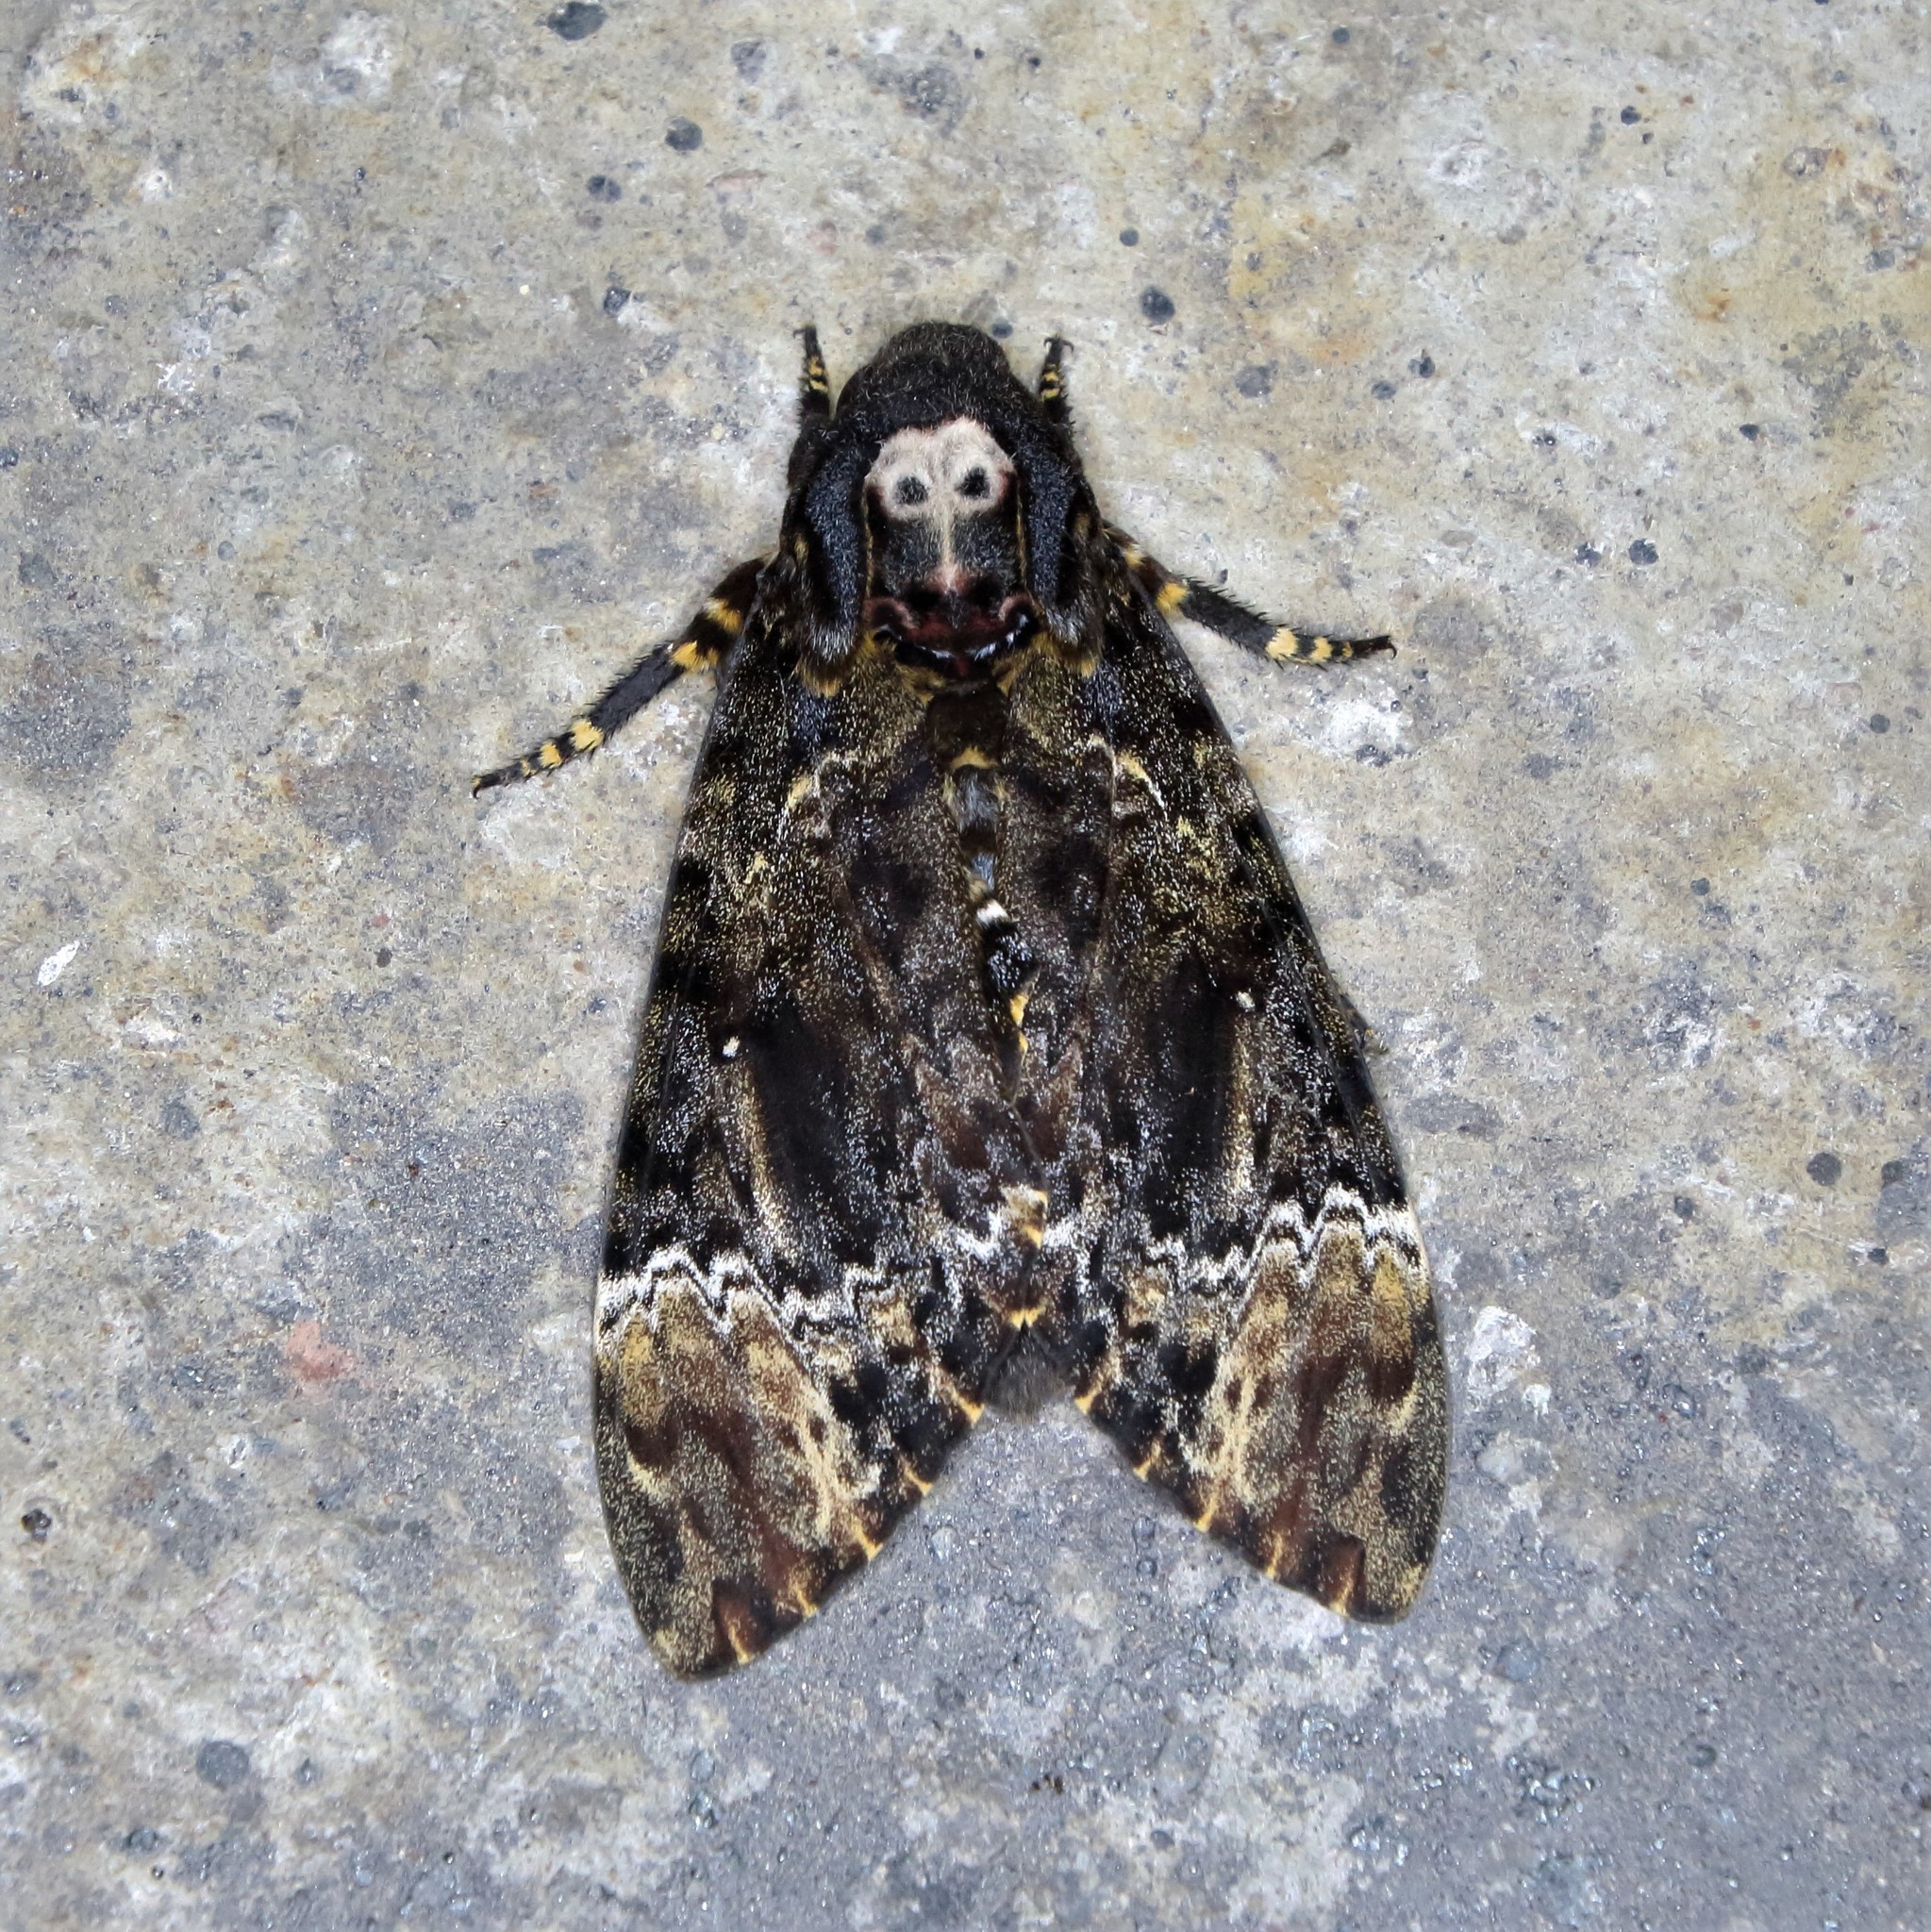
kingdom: Animalia
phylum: Arthropoda
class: Insecta
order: Lepidoptera
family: Sphingidae
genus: Acherontia
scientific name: Acherontia lachesis
